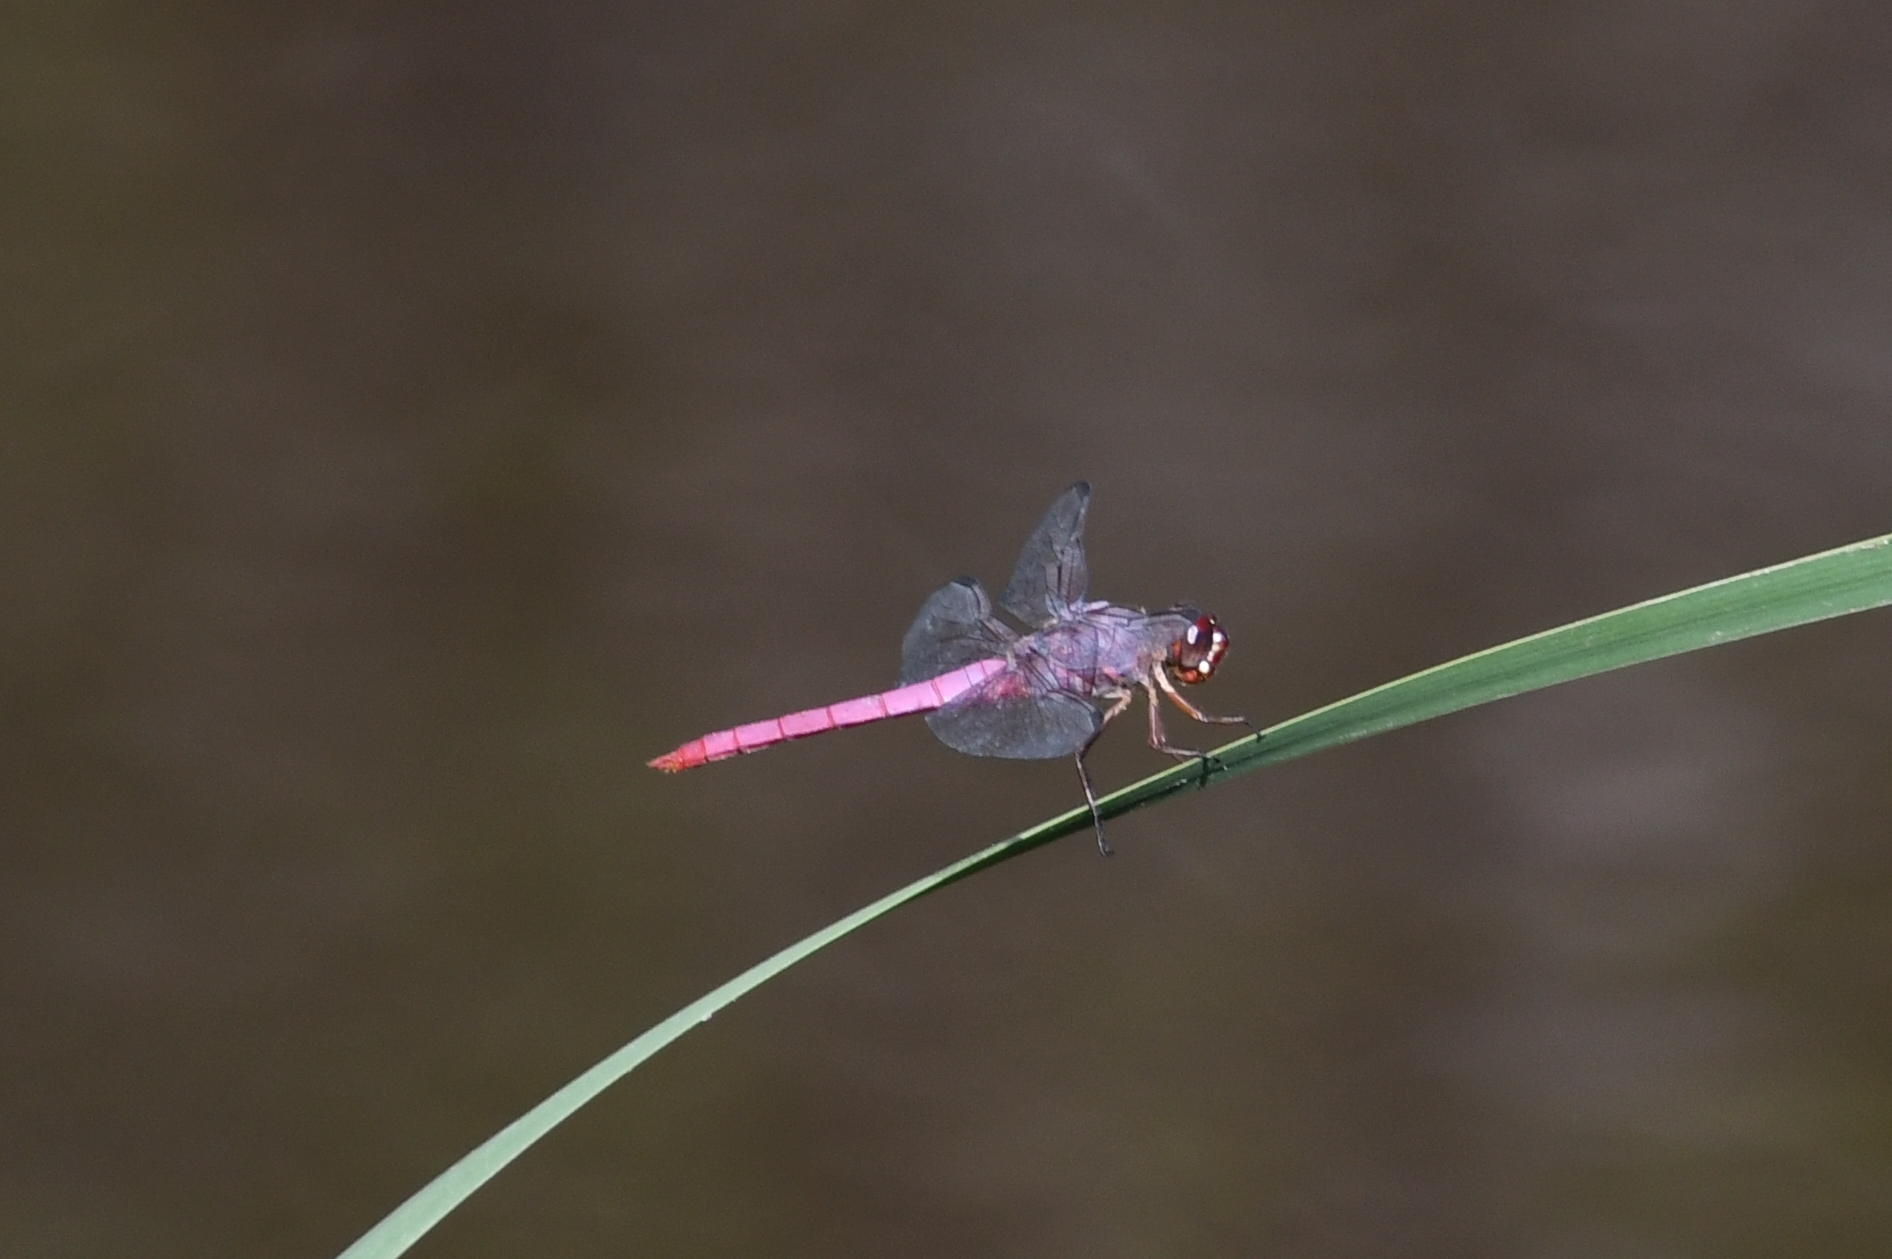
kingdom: Animalia
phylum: Arthropoda
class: Insecta
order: Odonata
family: Libellulidae
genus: Orthemis
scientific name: Orthemis ferruginea
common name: Roseate skimmer
